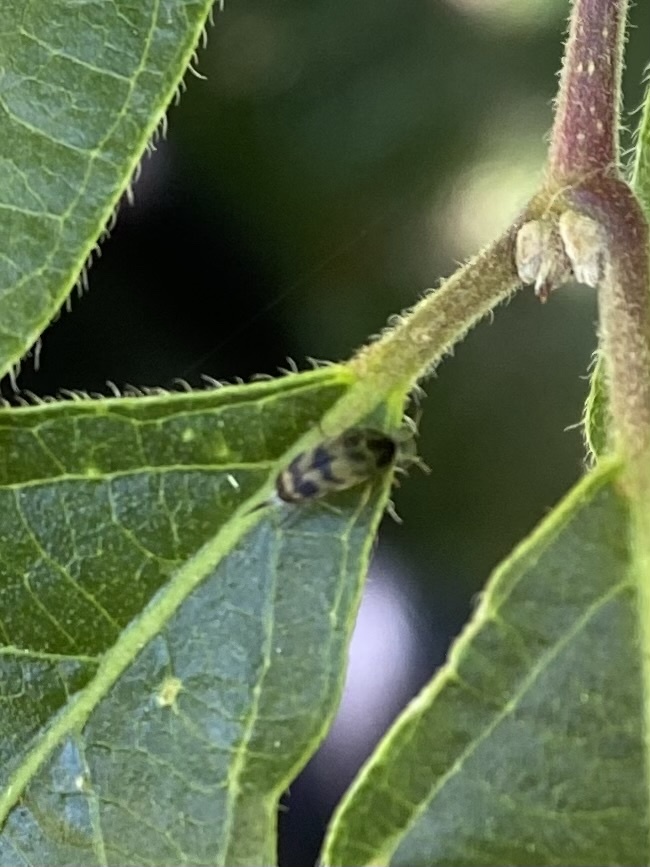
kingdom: Animalia
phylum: Arthropoda
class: Insecta
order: Coleoptera
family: Mordellidae
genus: Paramordellaria
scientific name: Paramordellaria triloba
